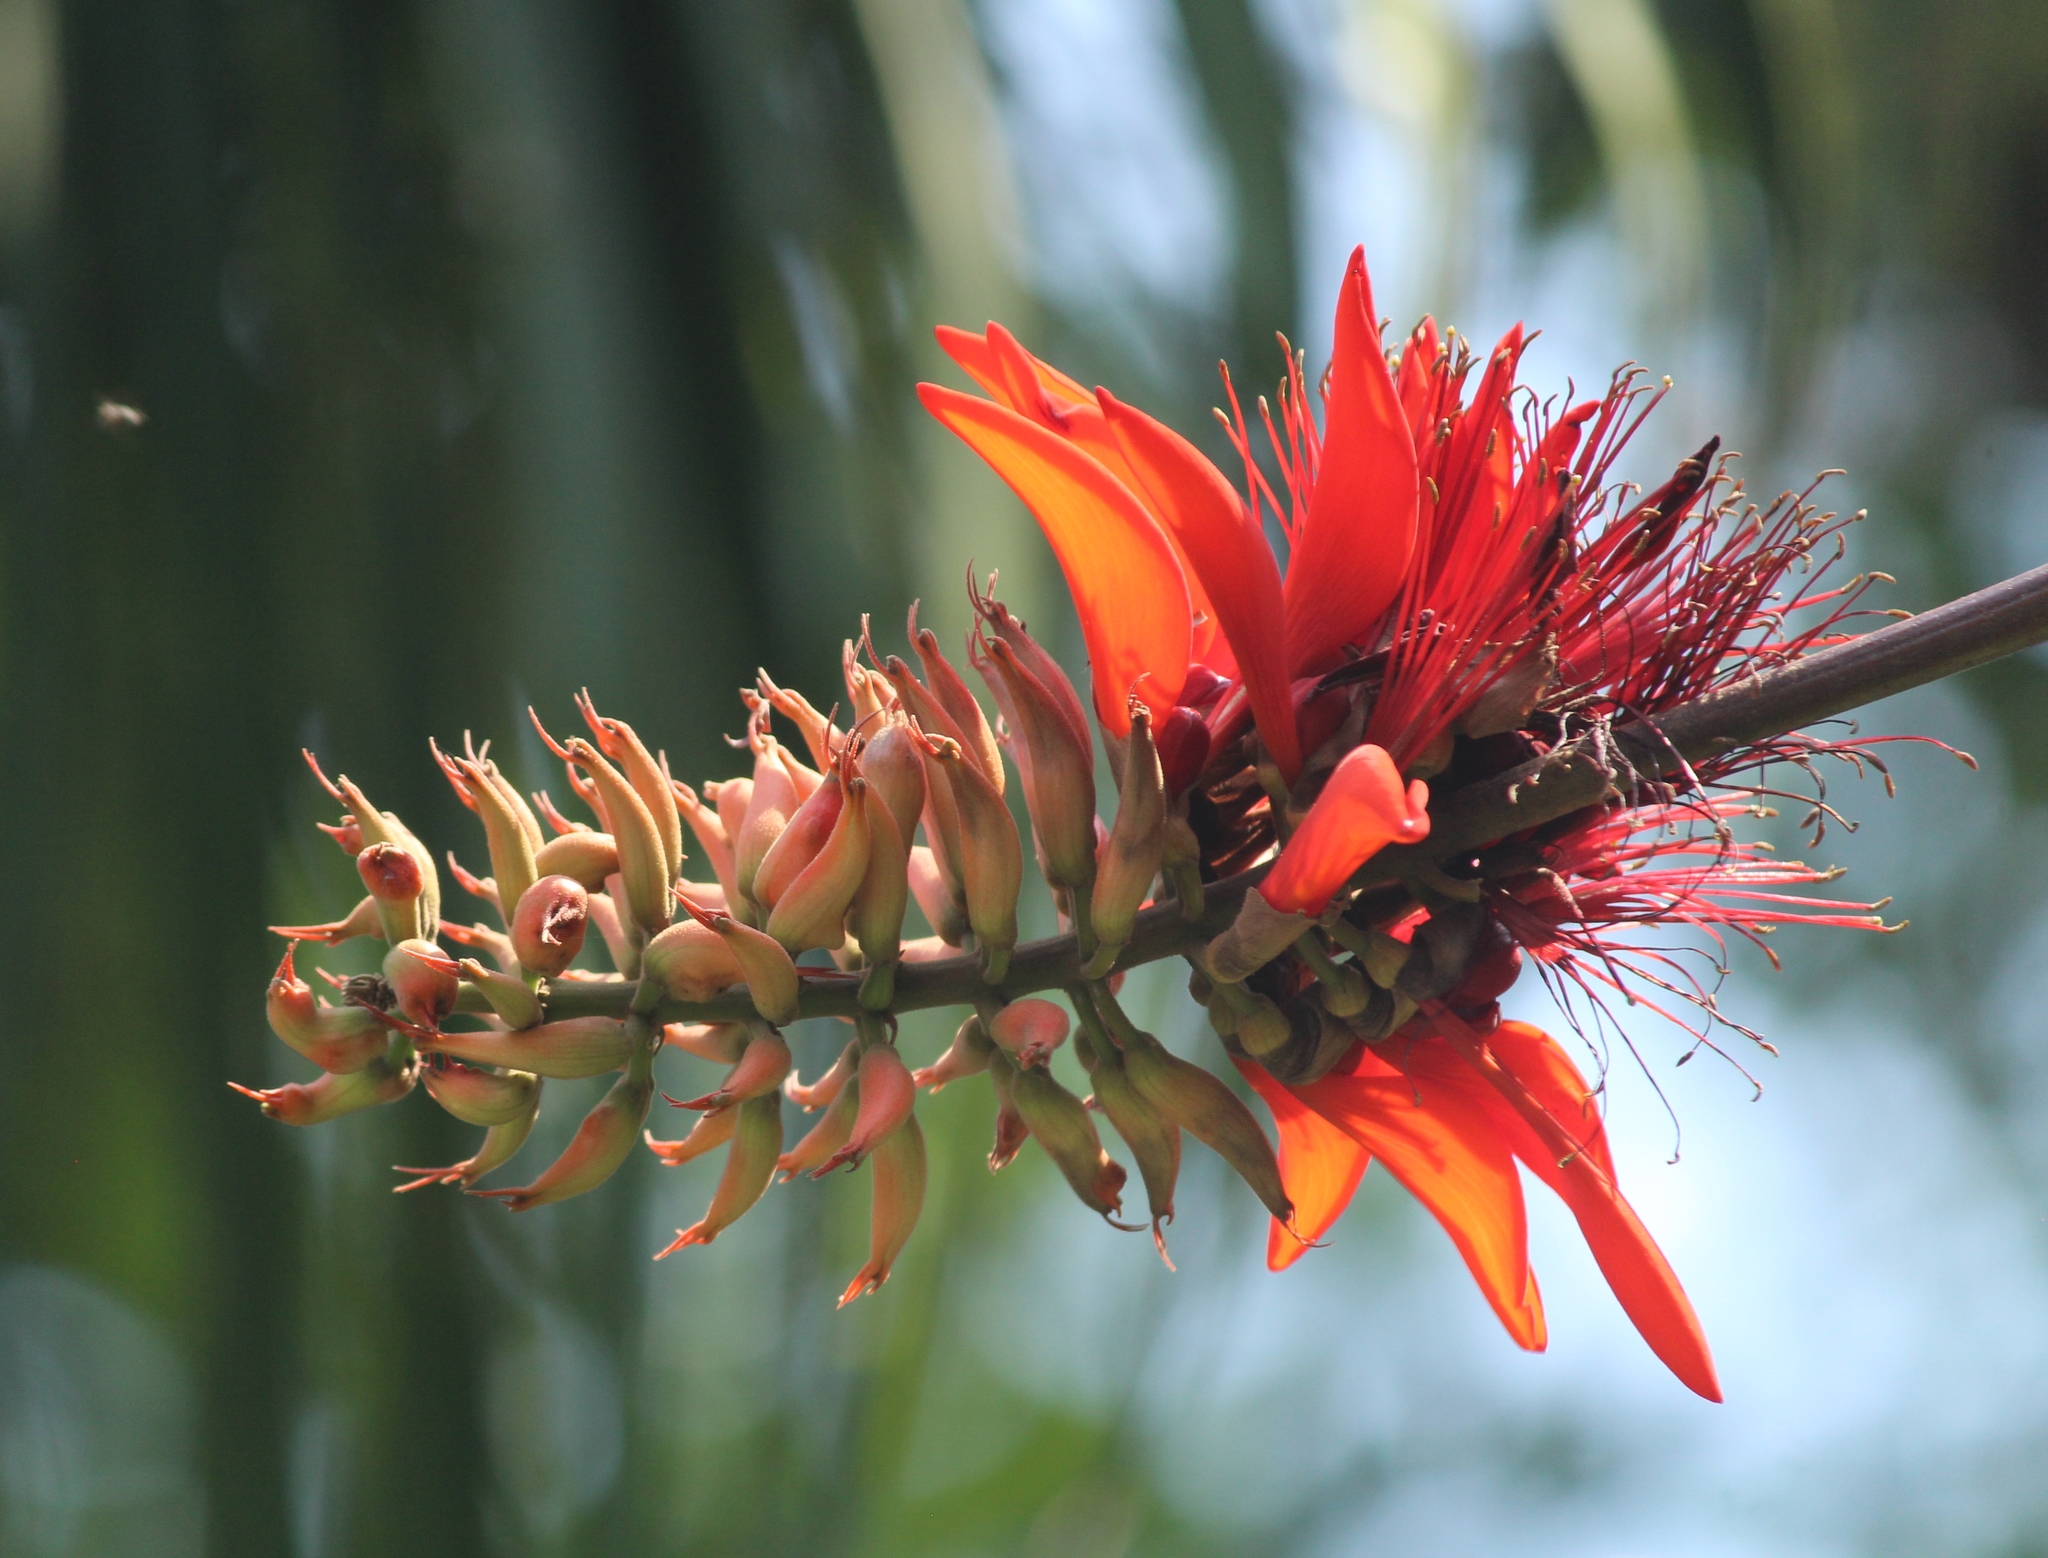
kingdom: Plantae
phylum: Tracheophyta
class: Magnoliopsida
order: Fabales
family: Fabaceae
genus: Erythrina
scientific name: Erythrina variegata
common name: Indian coral tree
